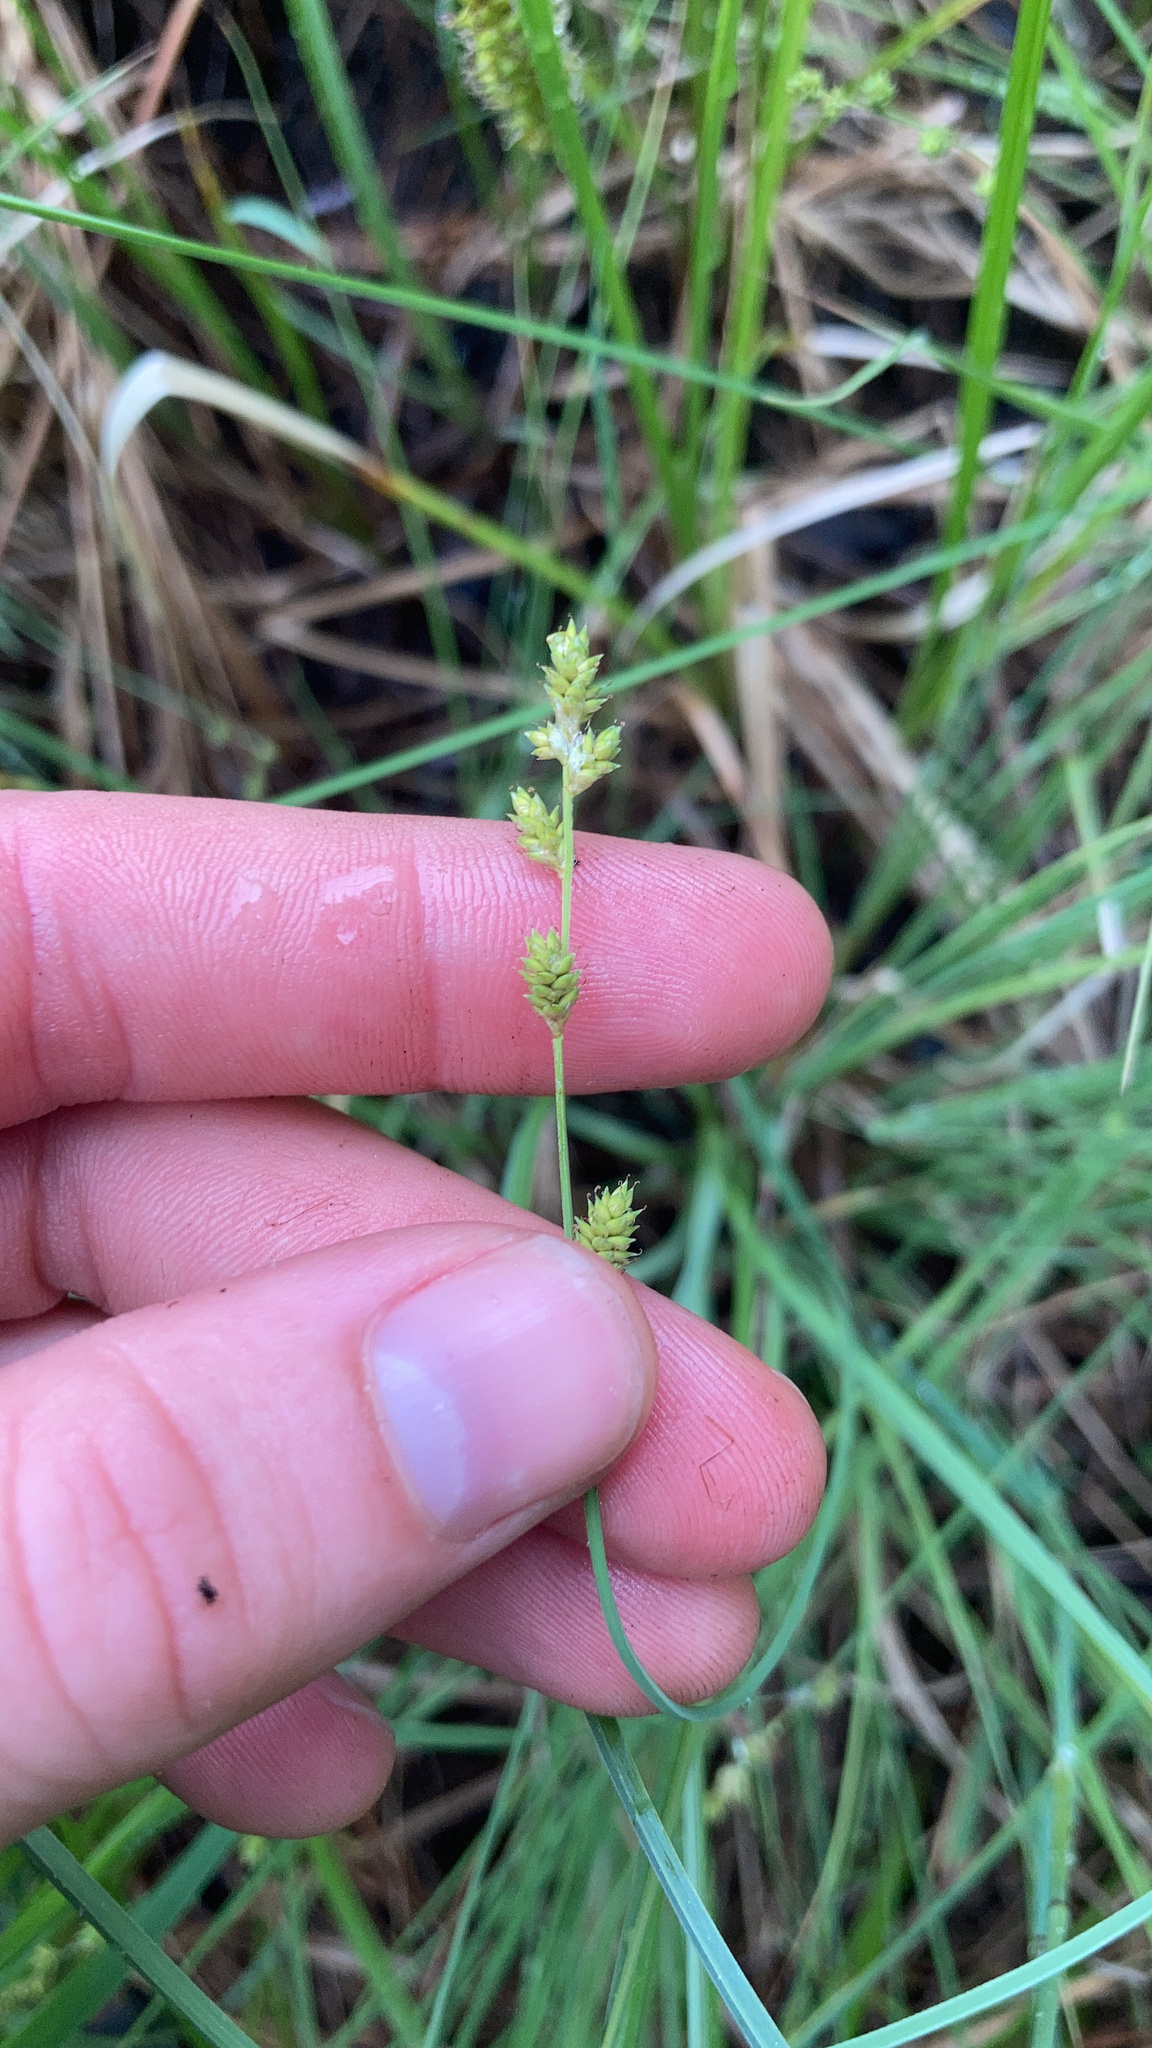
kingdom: Plantae
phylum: Tracheophyta
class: Liliopsida
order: Poales
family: Cyperaceae
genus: Carex
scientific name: Carex canescens
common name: White sedge
